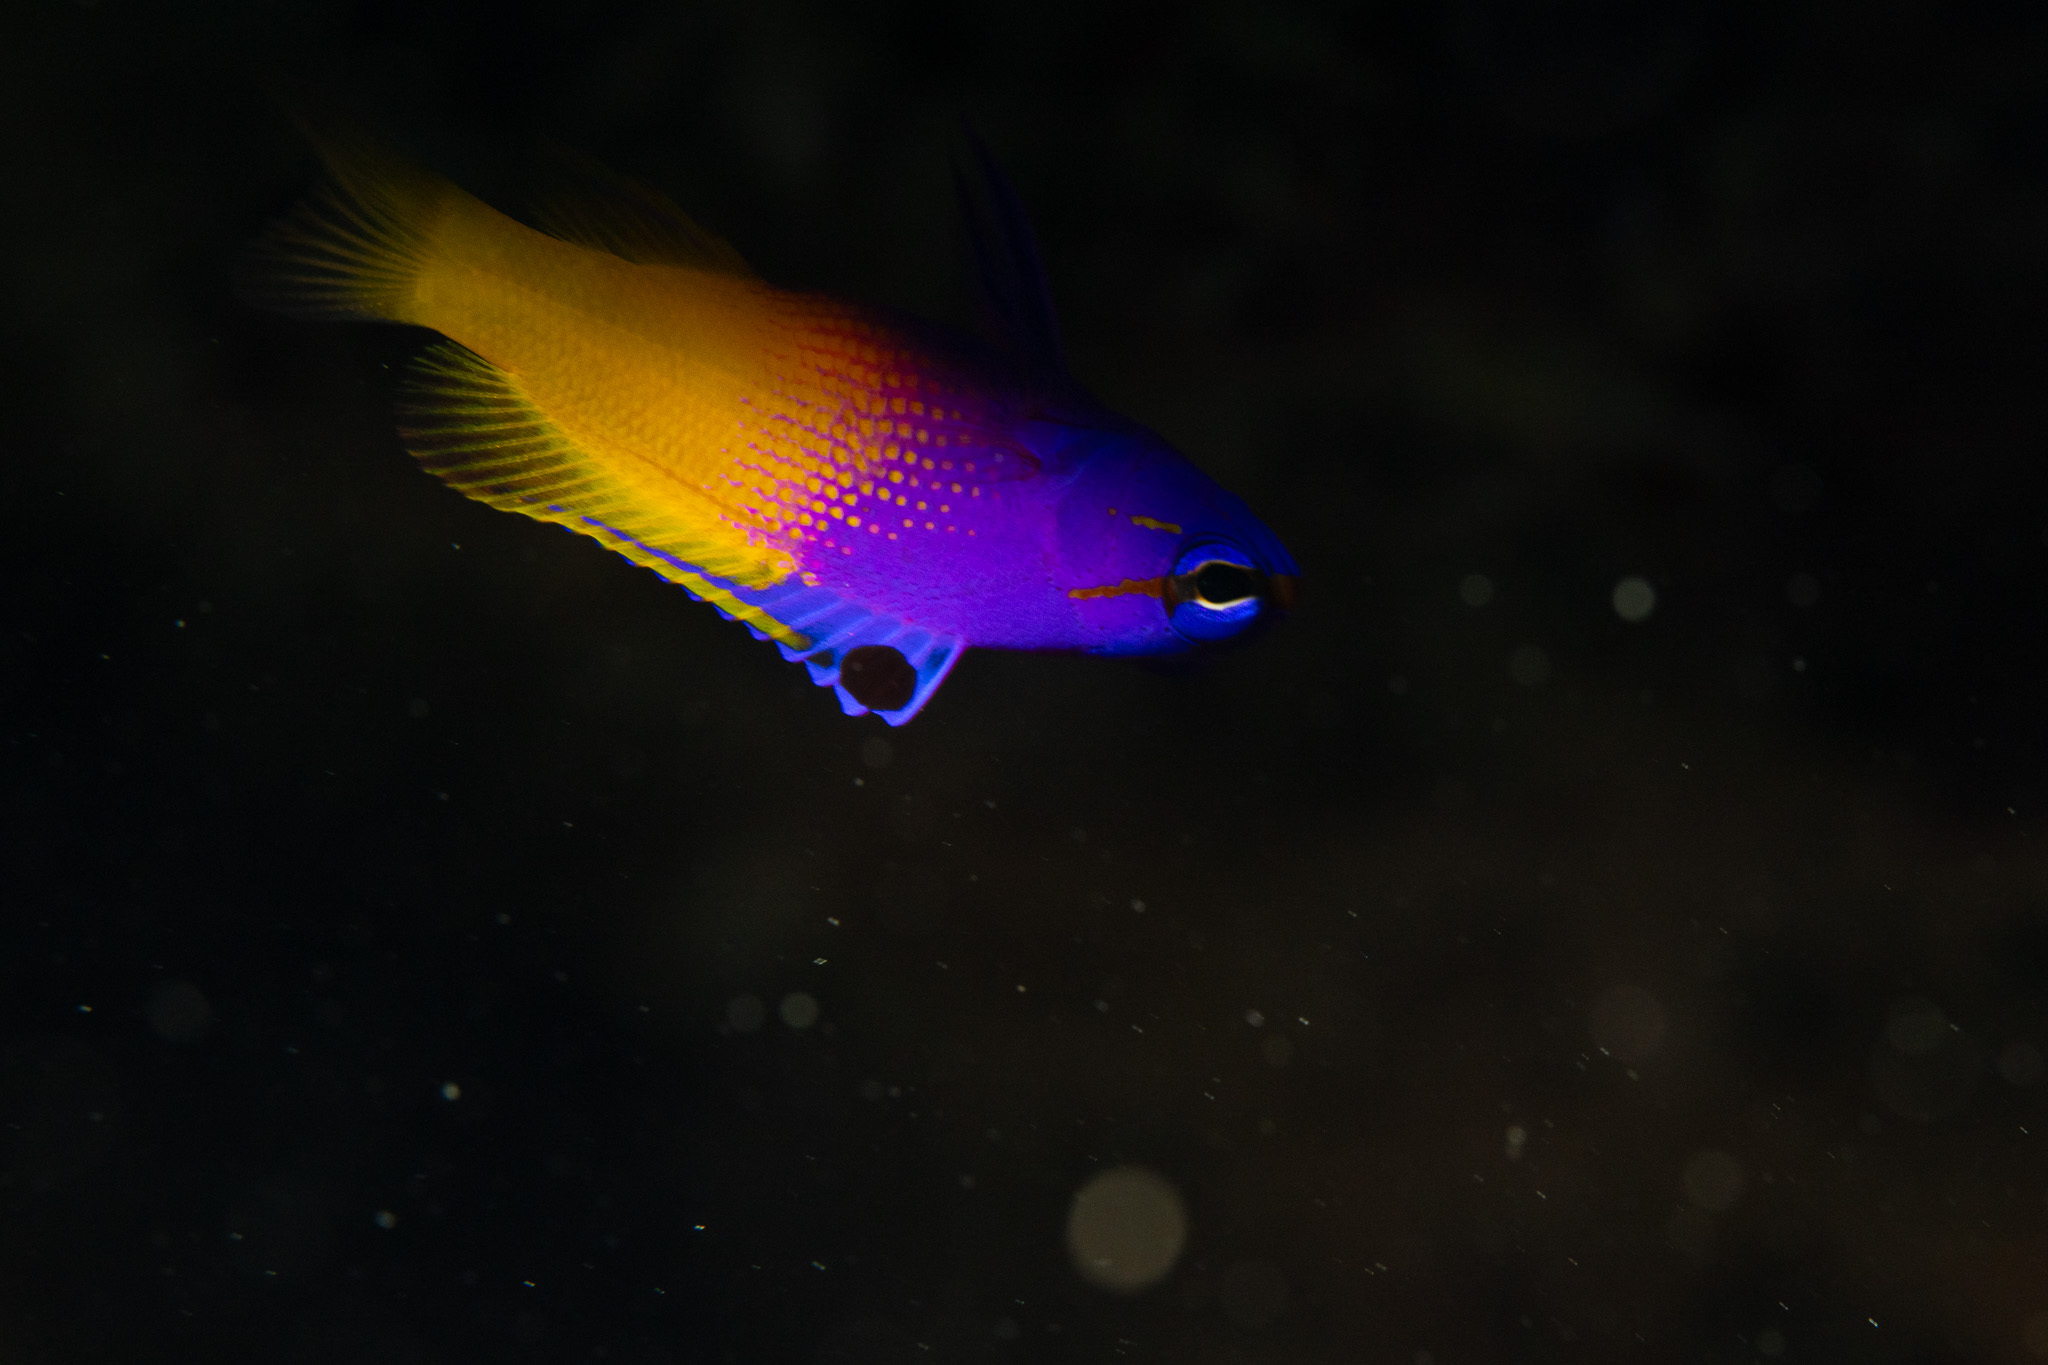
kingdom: Animalia
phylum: Chordata
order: Perciformes
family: Grammatidae
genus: Gramma
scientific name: Gramma loreto
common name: Fairy basslet
